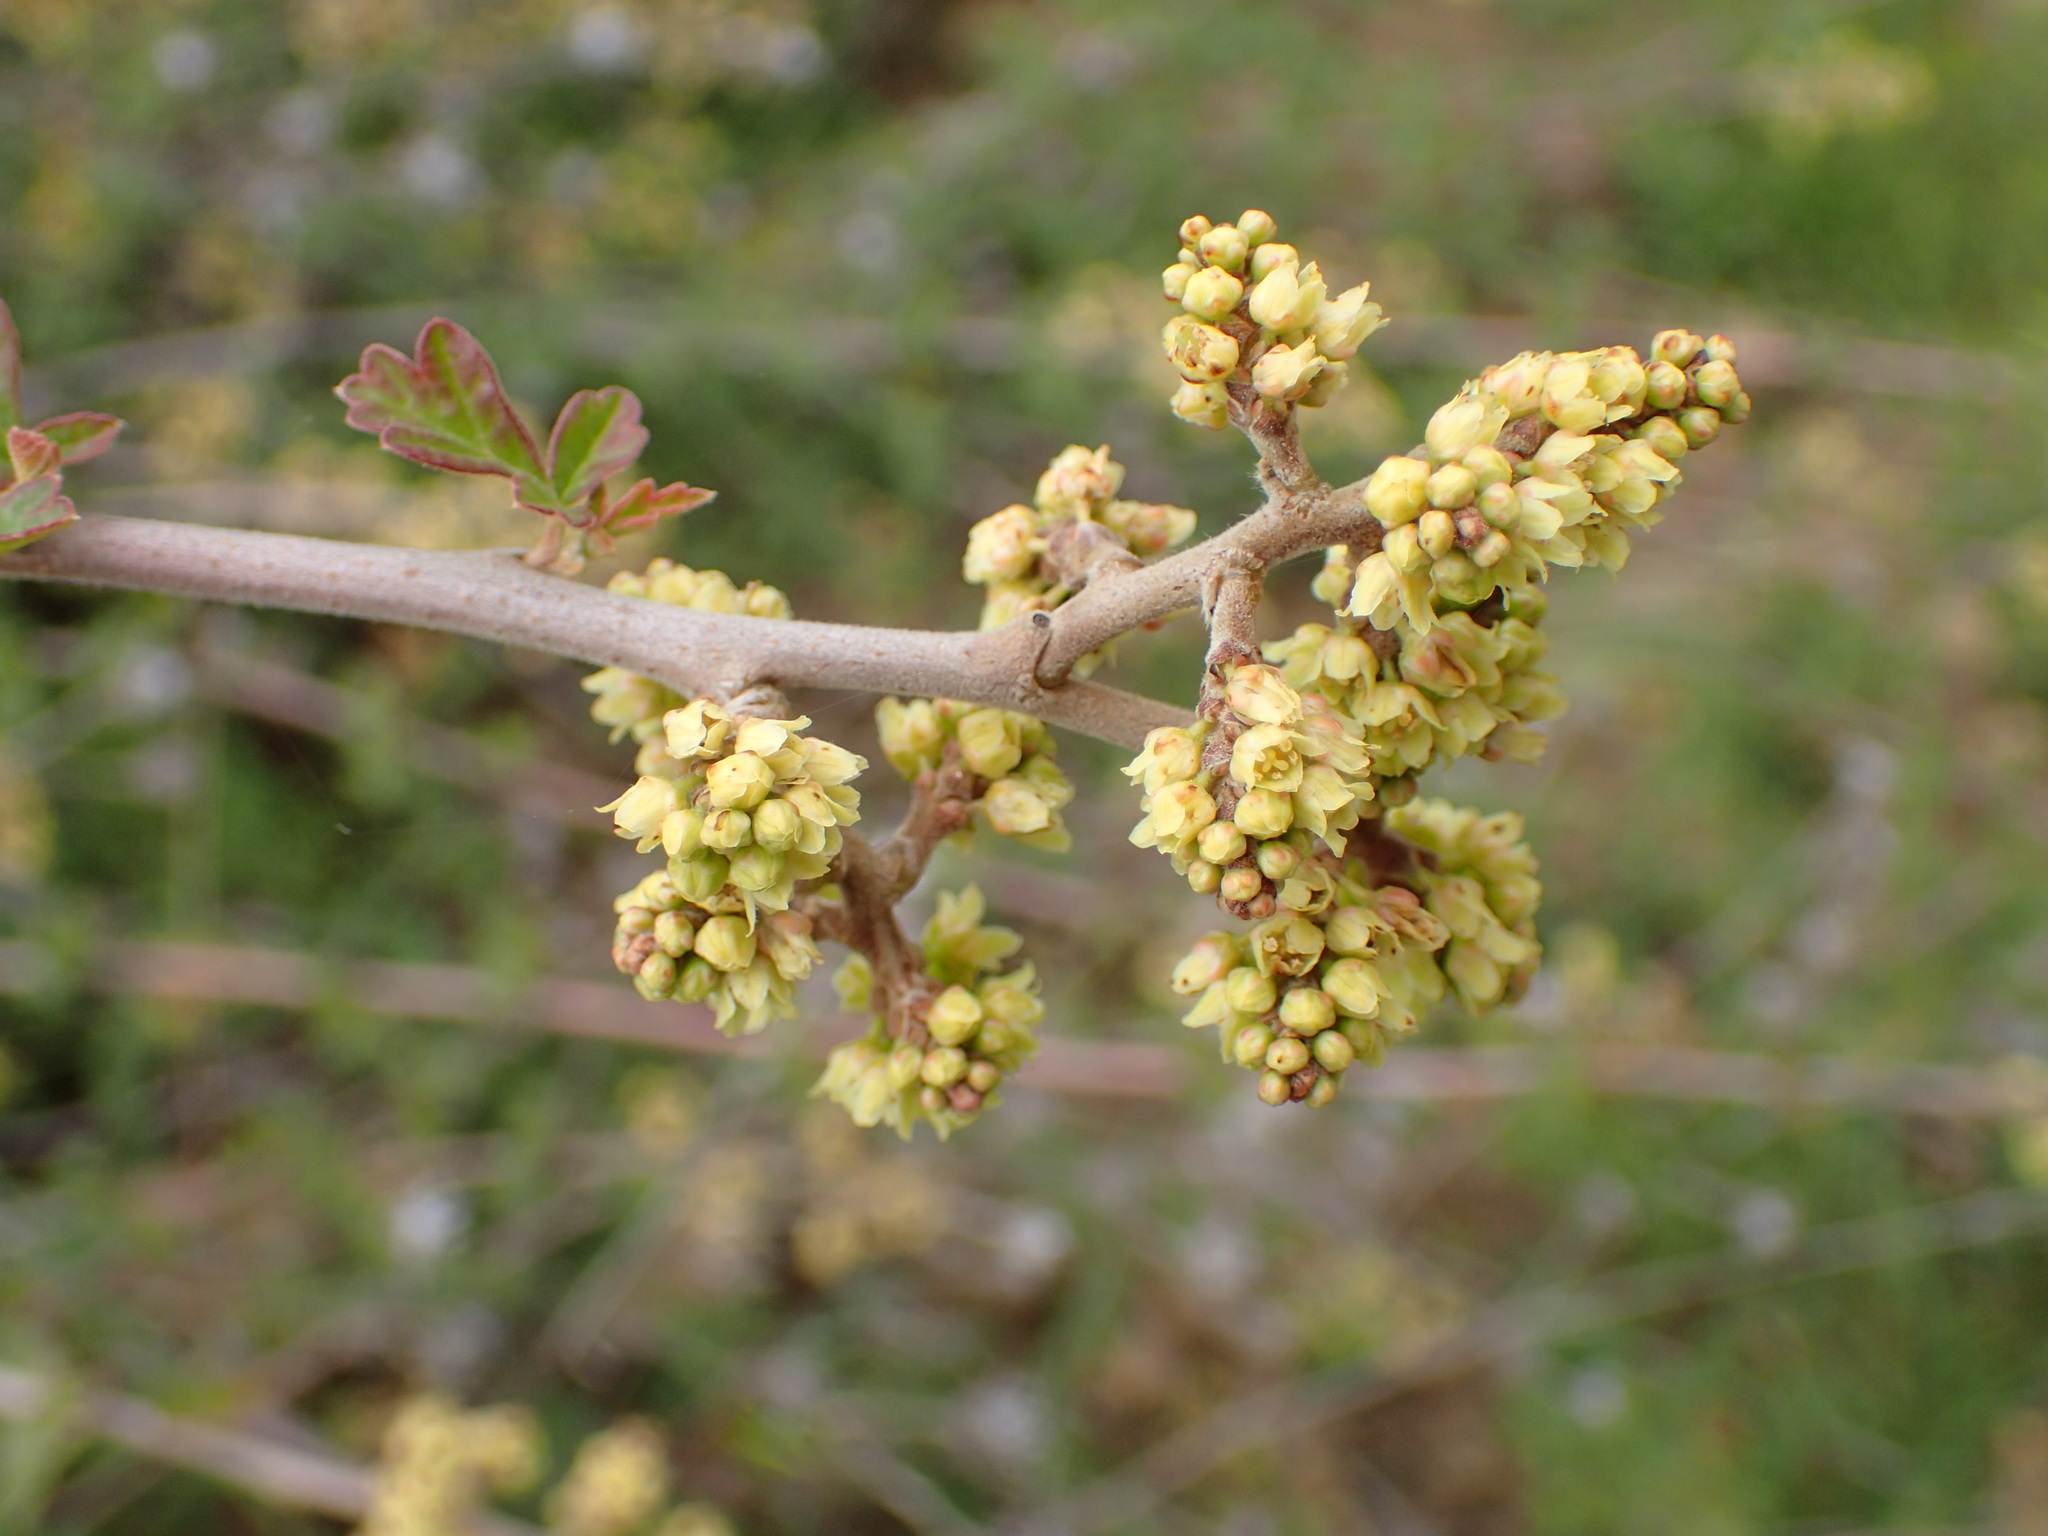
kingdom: Plantae
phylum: Tracheophyta
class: Magnoliopsida
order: Sapindales
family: Anacardiaceae
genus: Rhus
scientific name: Rhus aromatica
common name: Aromatic sumac
